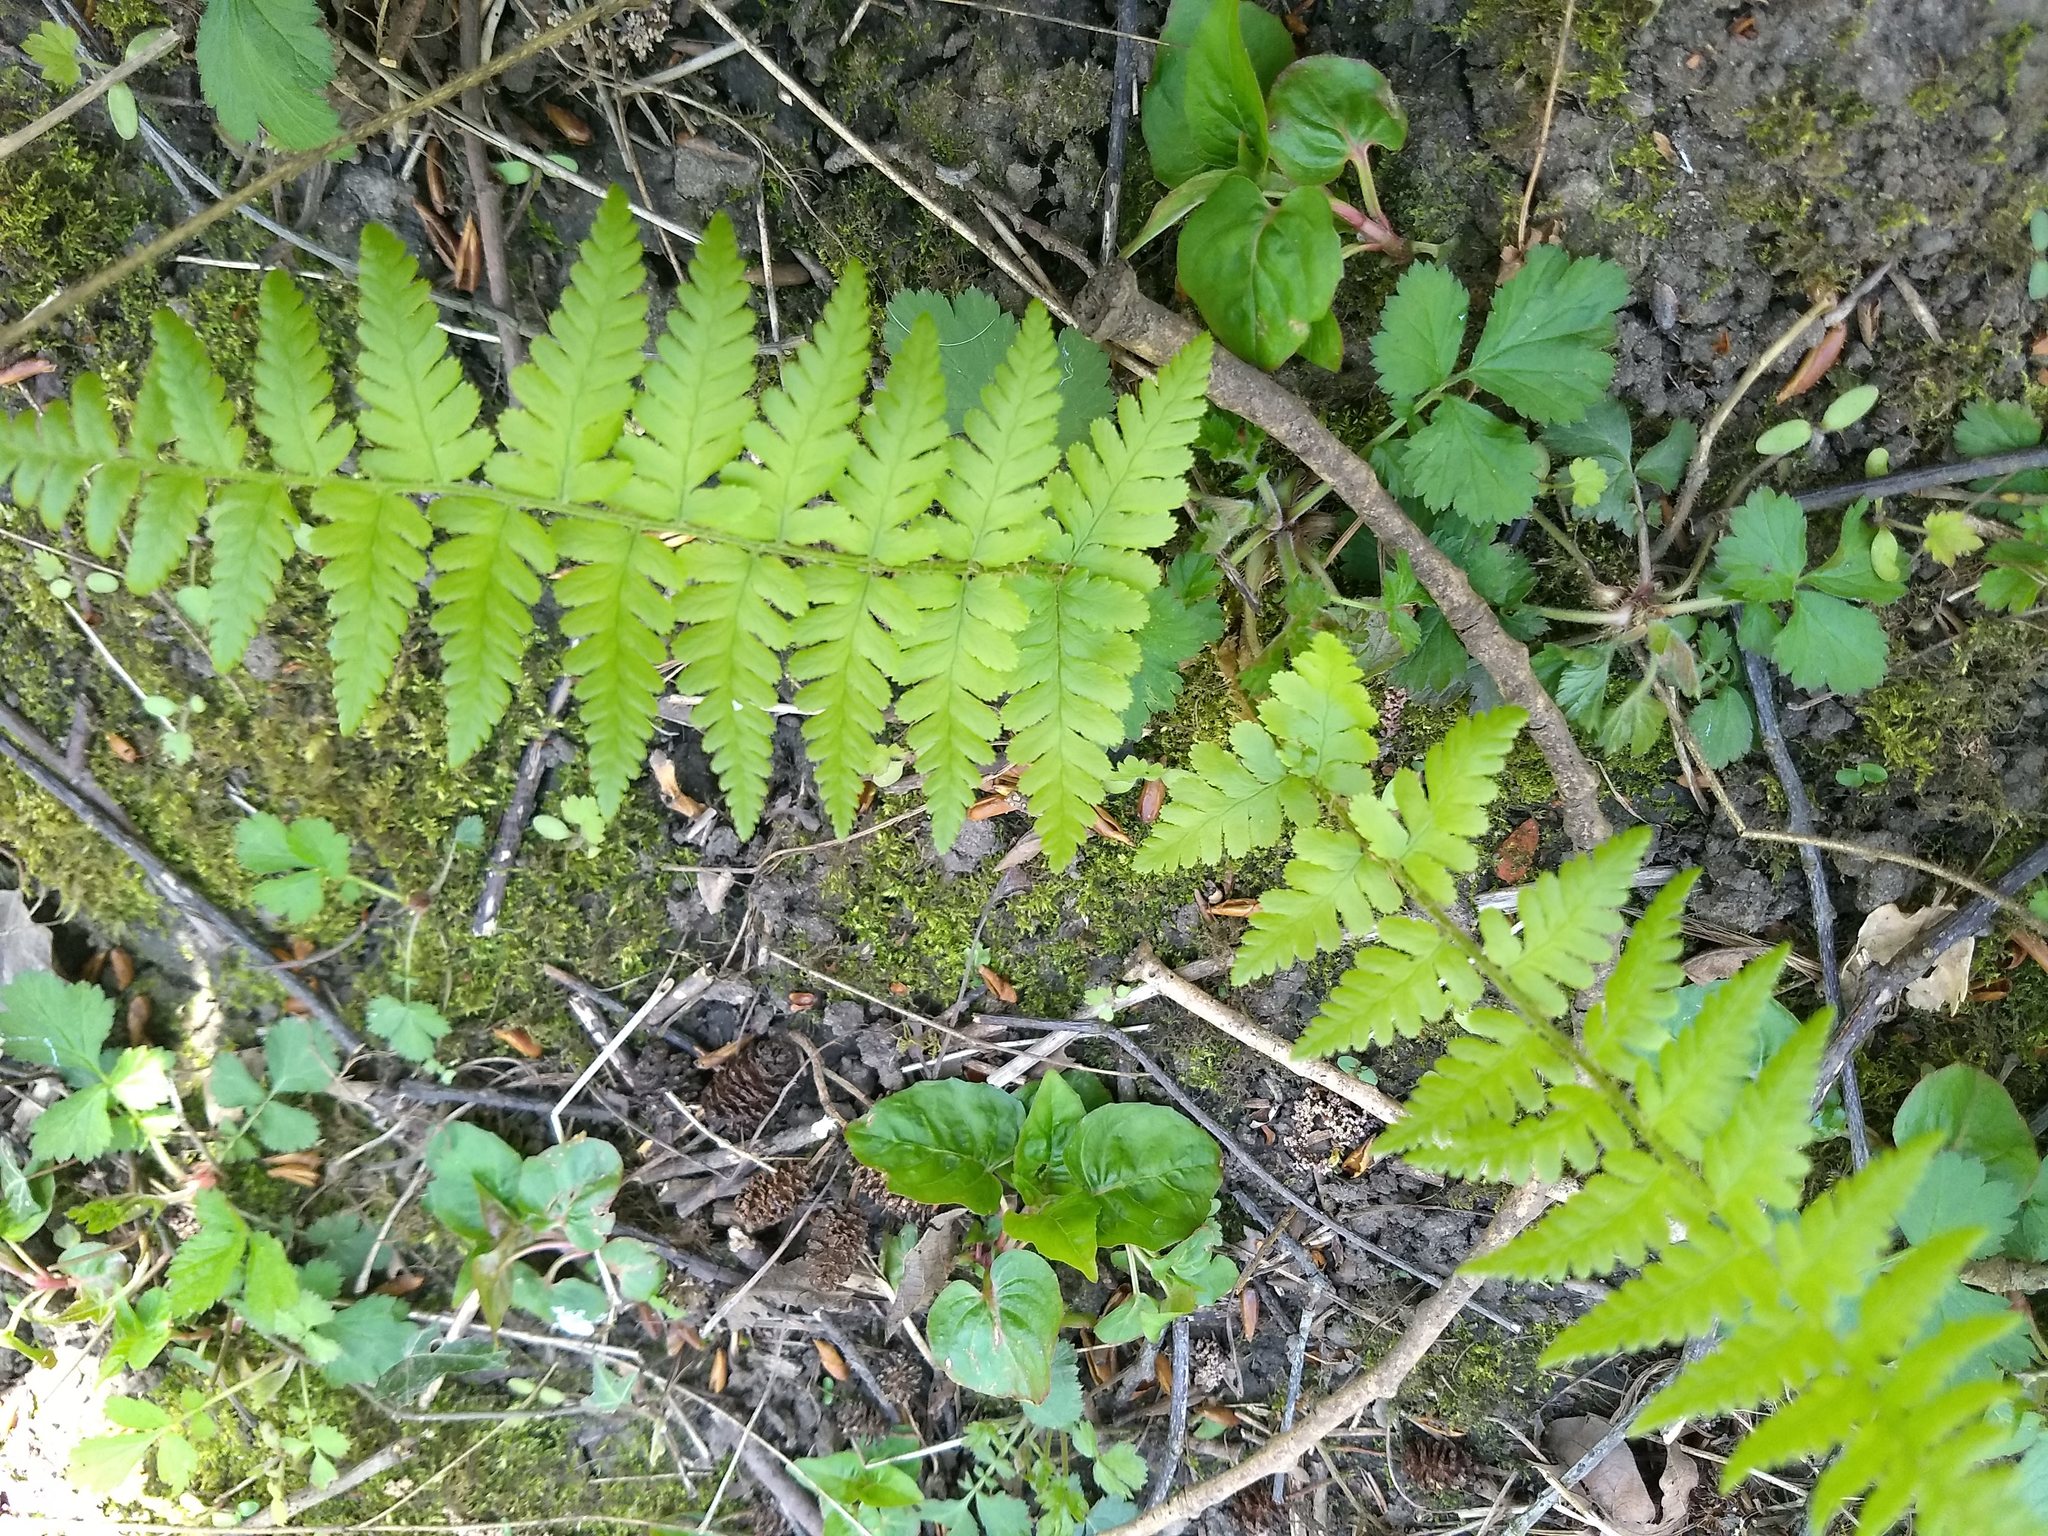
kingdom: Plantae
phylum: Tracheophyta
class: Polypodiopsida
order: Polypodiales
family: Dryopteridaceae
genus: Dryopteris
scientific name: Dryopteris filix-mas
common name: Male fern
